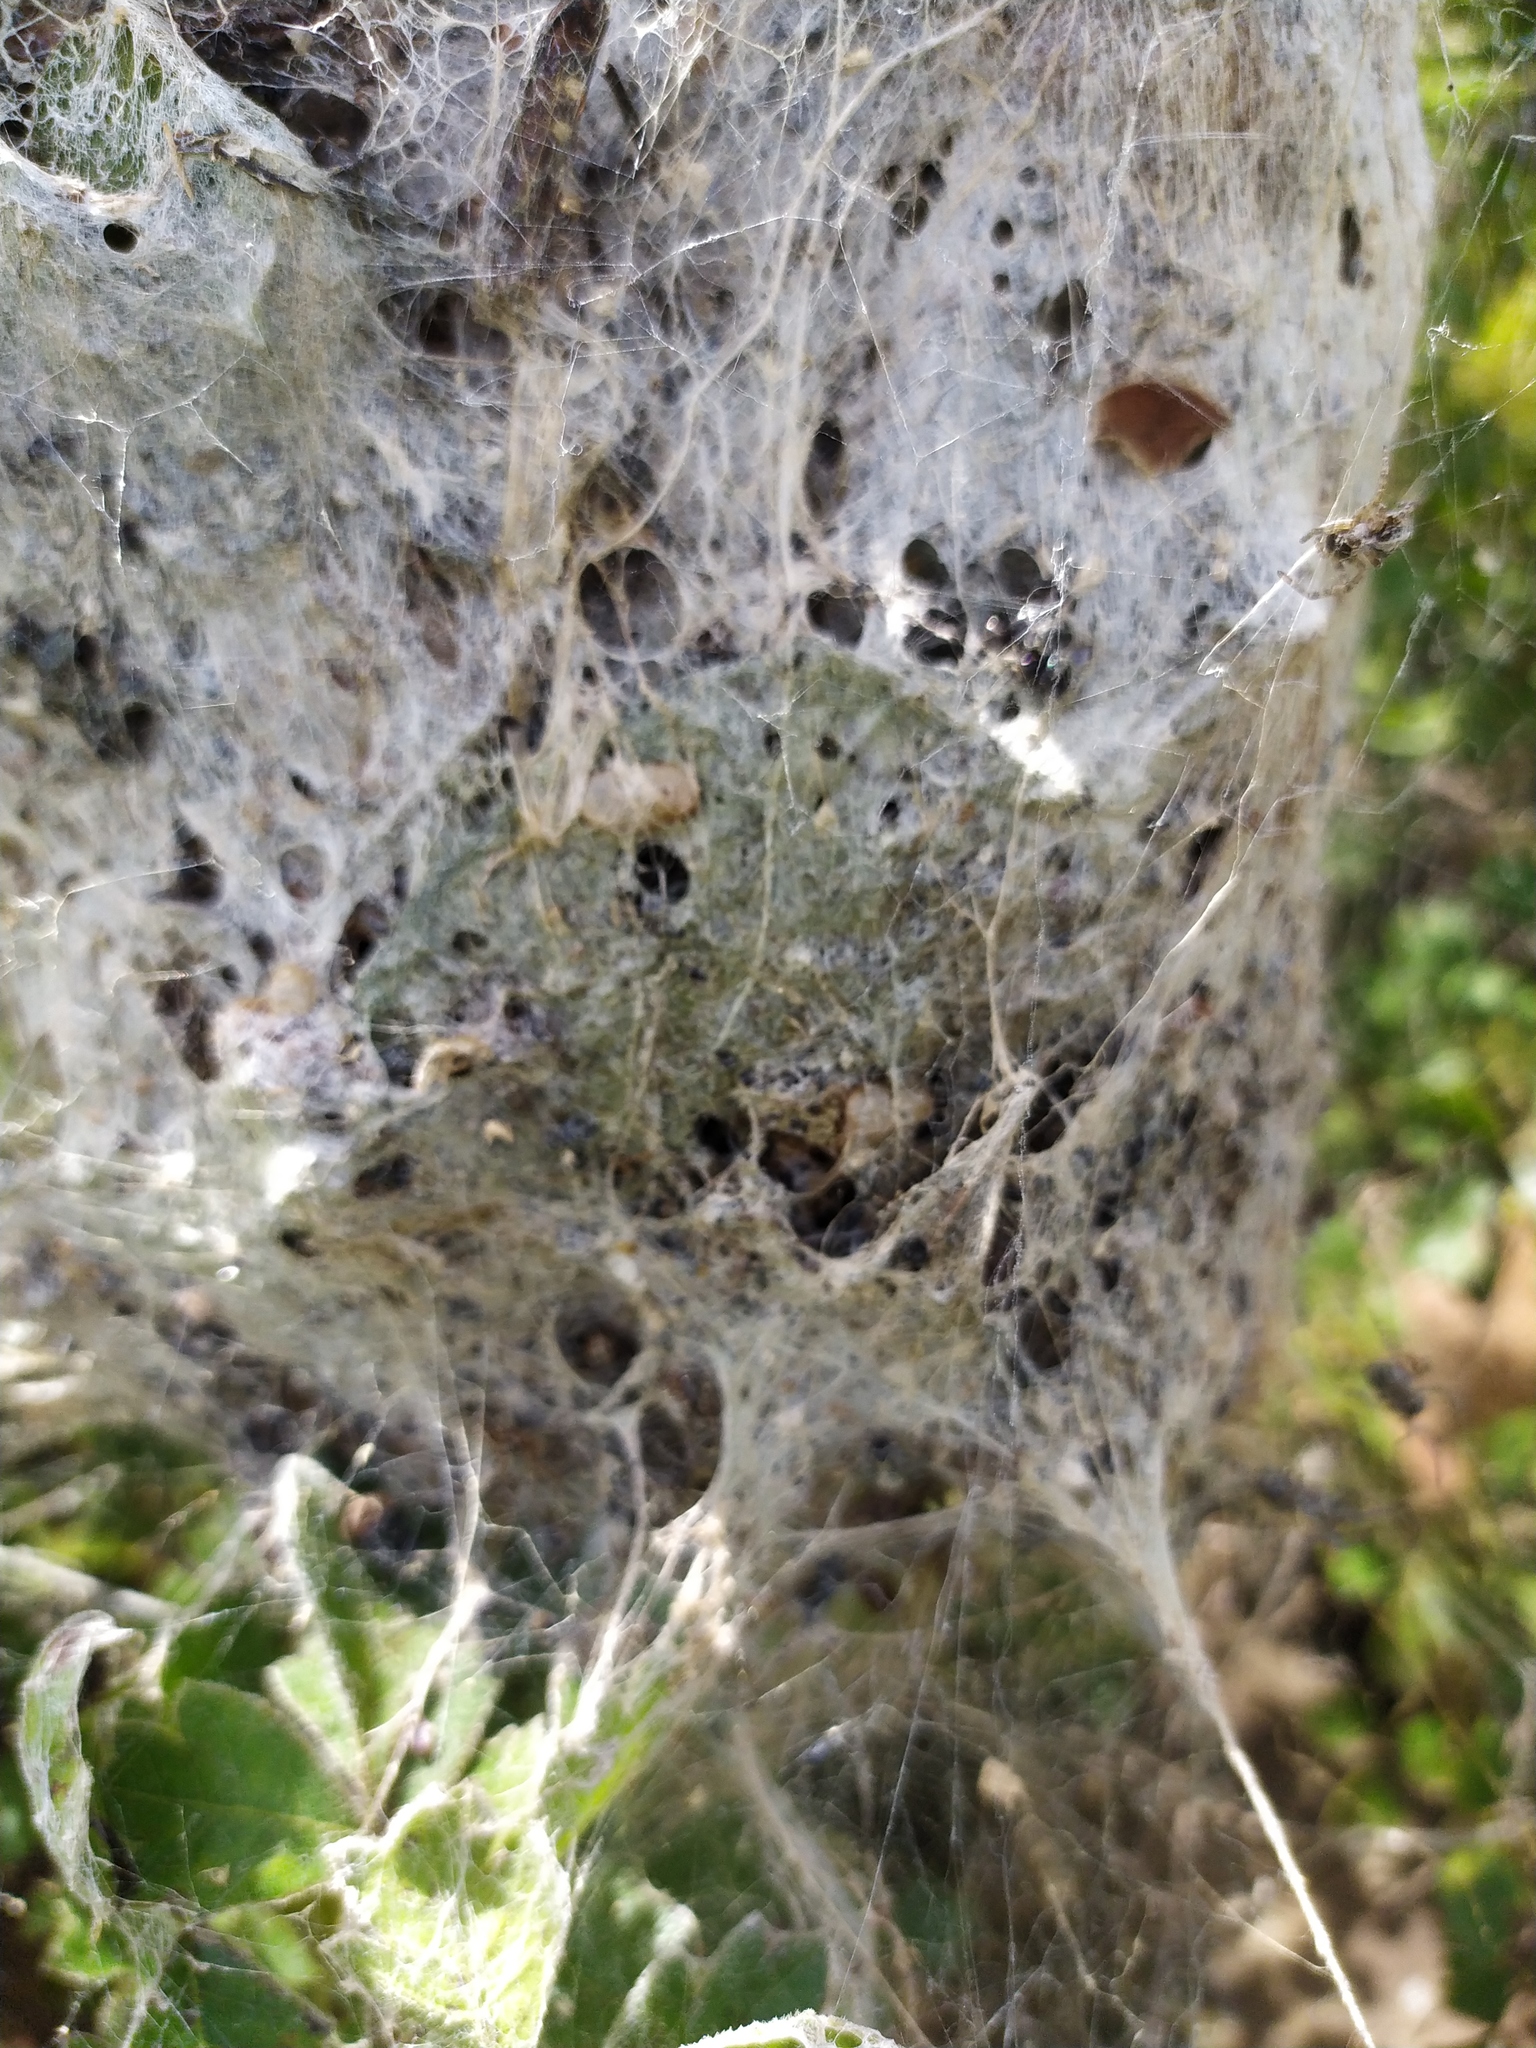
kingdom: Animalia
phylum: Arthropoda
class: Arachnida
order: Araneae
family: Eresidae
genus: Stegodyphus
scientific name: Stegodyphus dumicola
